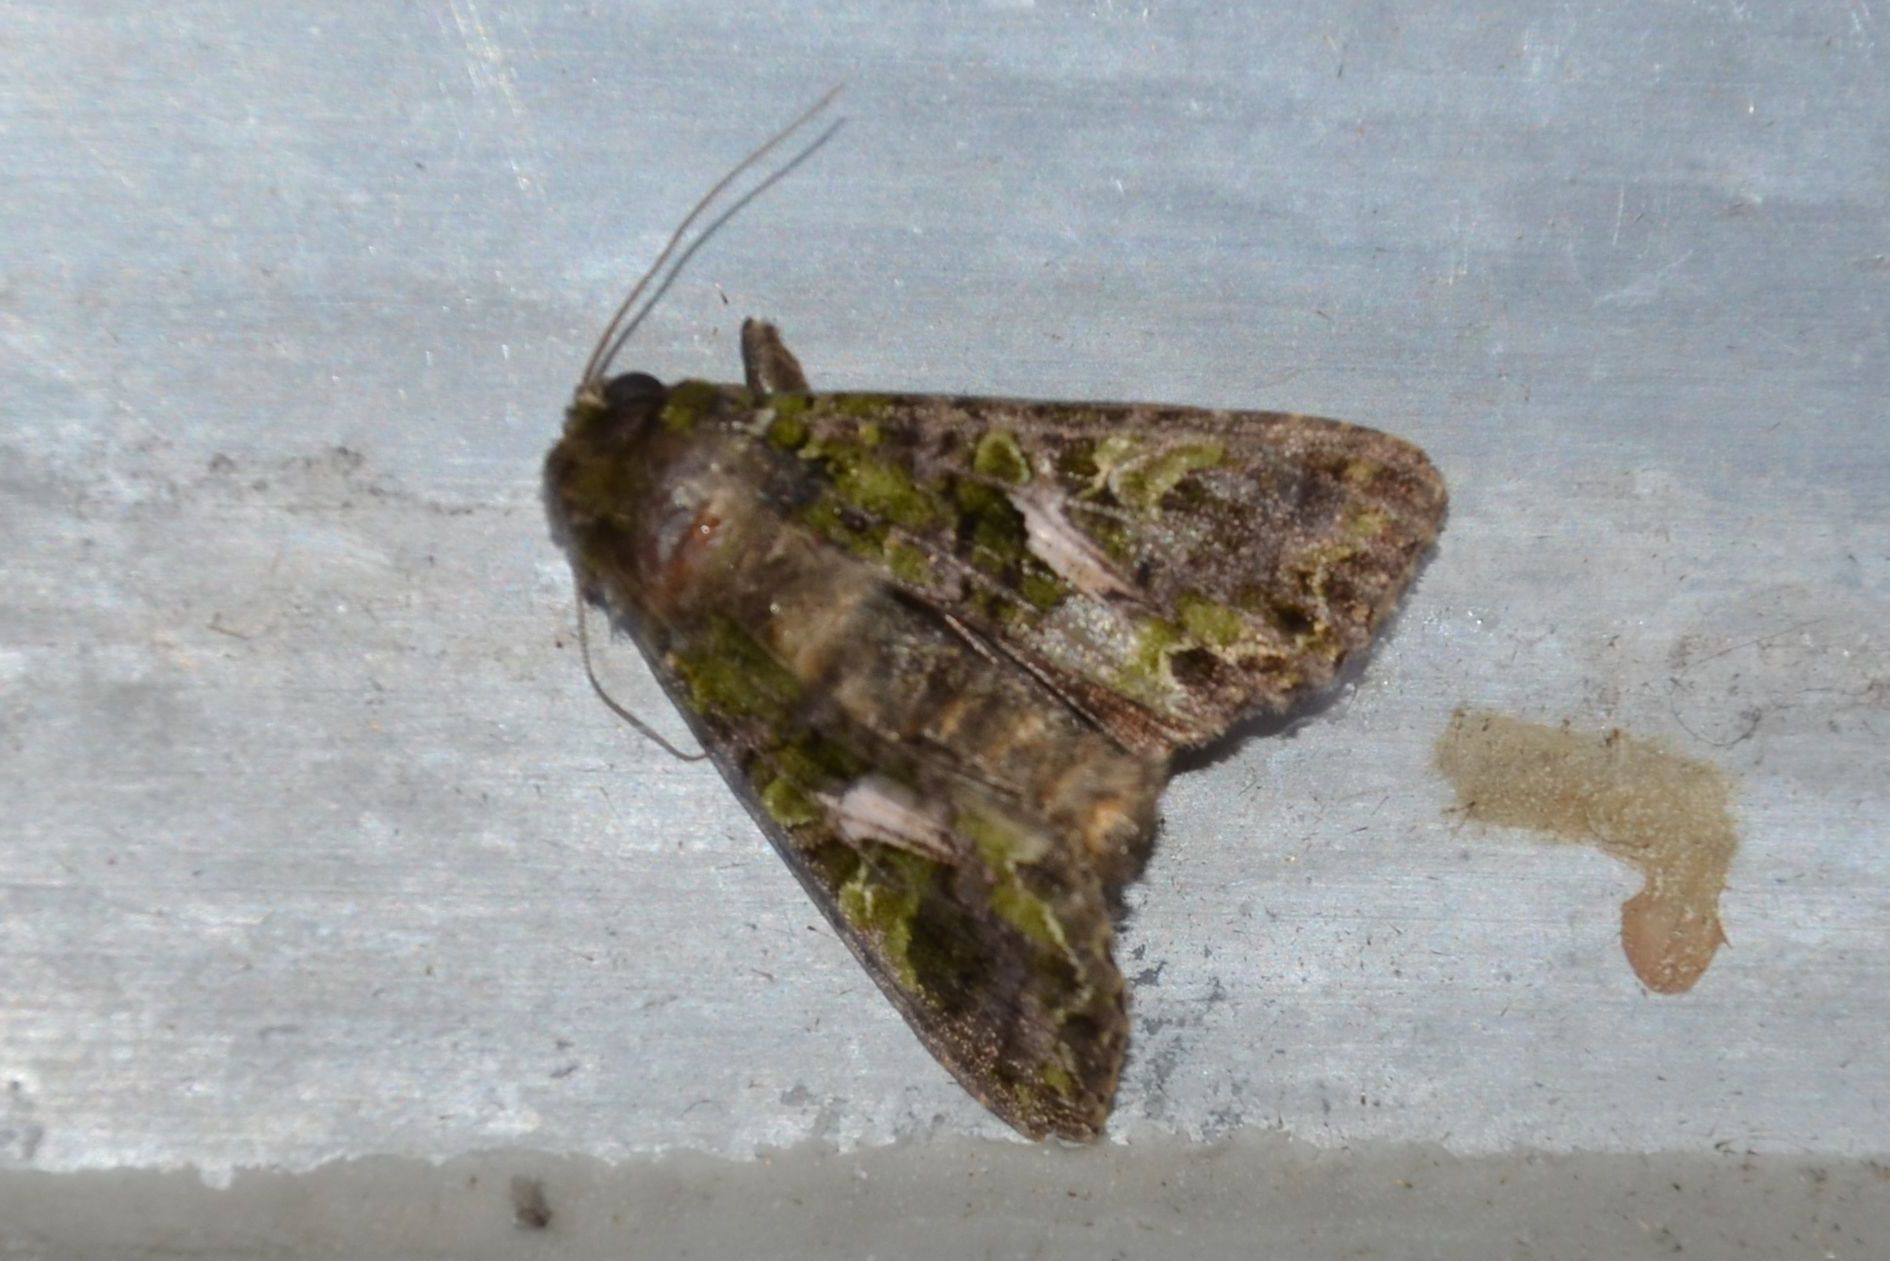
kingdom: Animalia
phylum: Arthropoda
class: Insecta
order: Lepidoptera
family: Noctuidae
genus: Trachea
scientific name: Trachea atriplicis
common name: Orache moth
